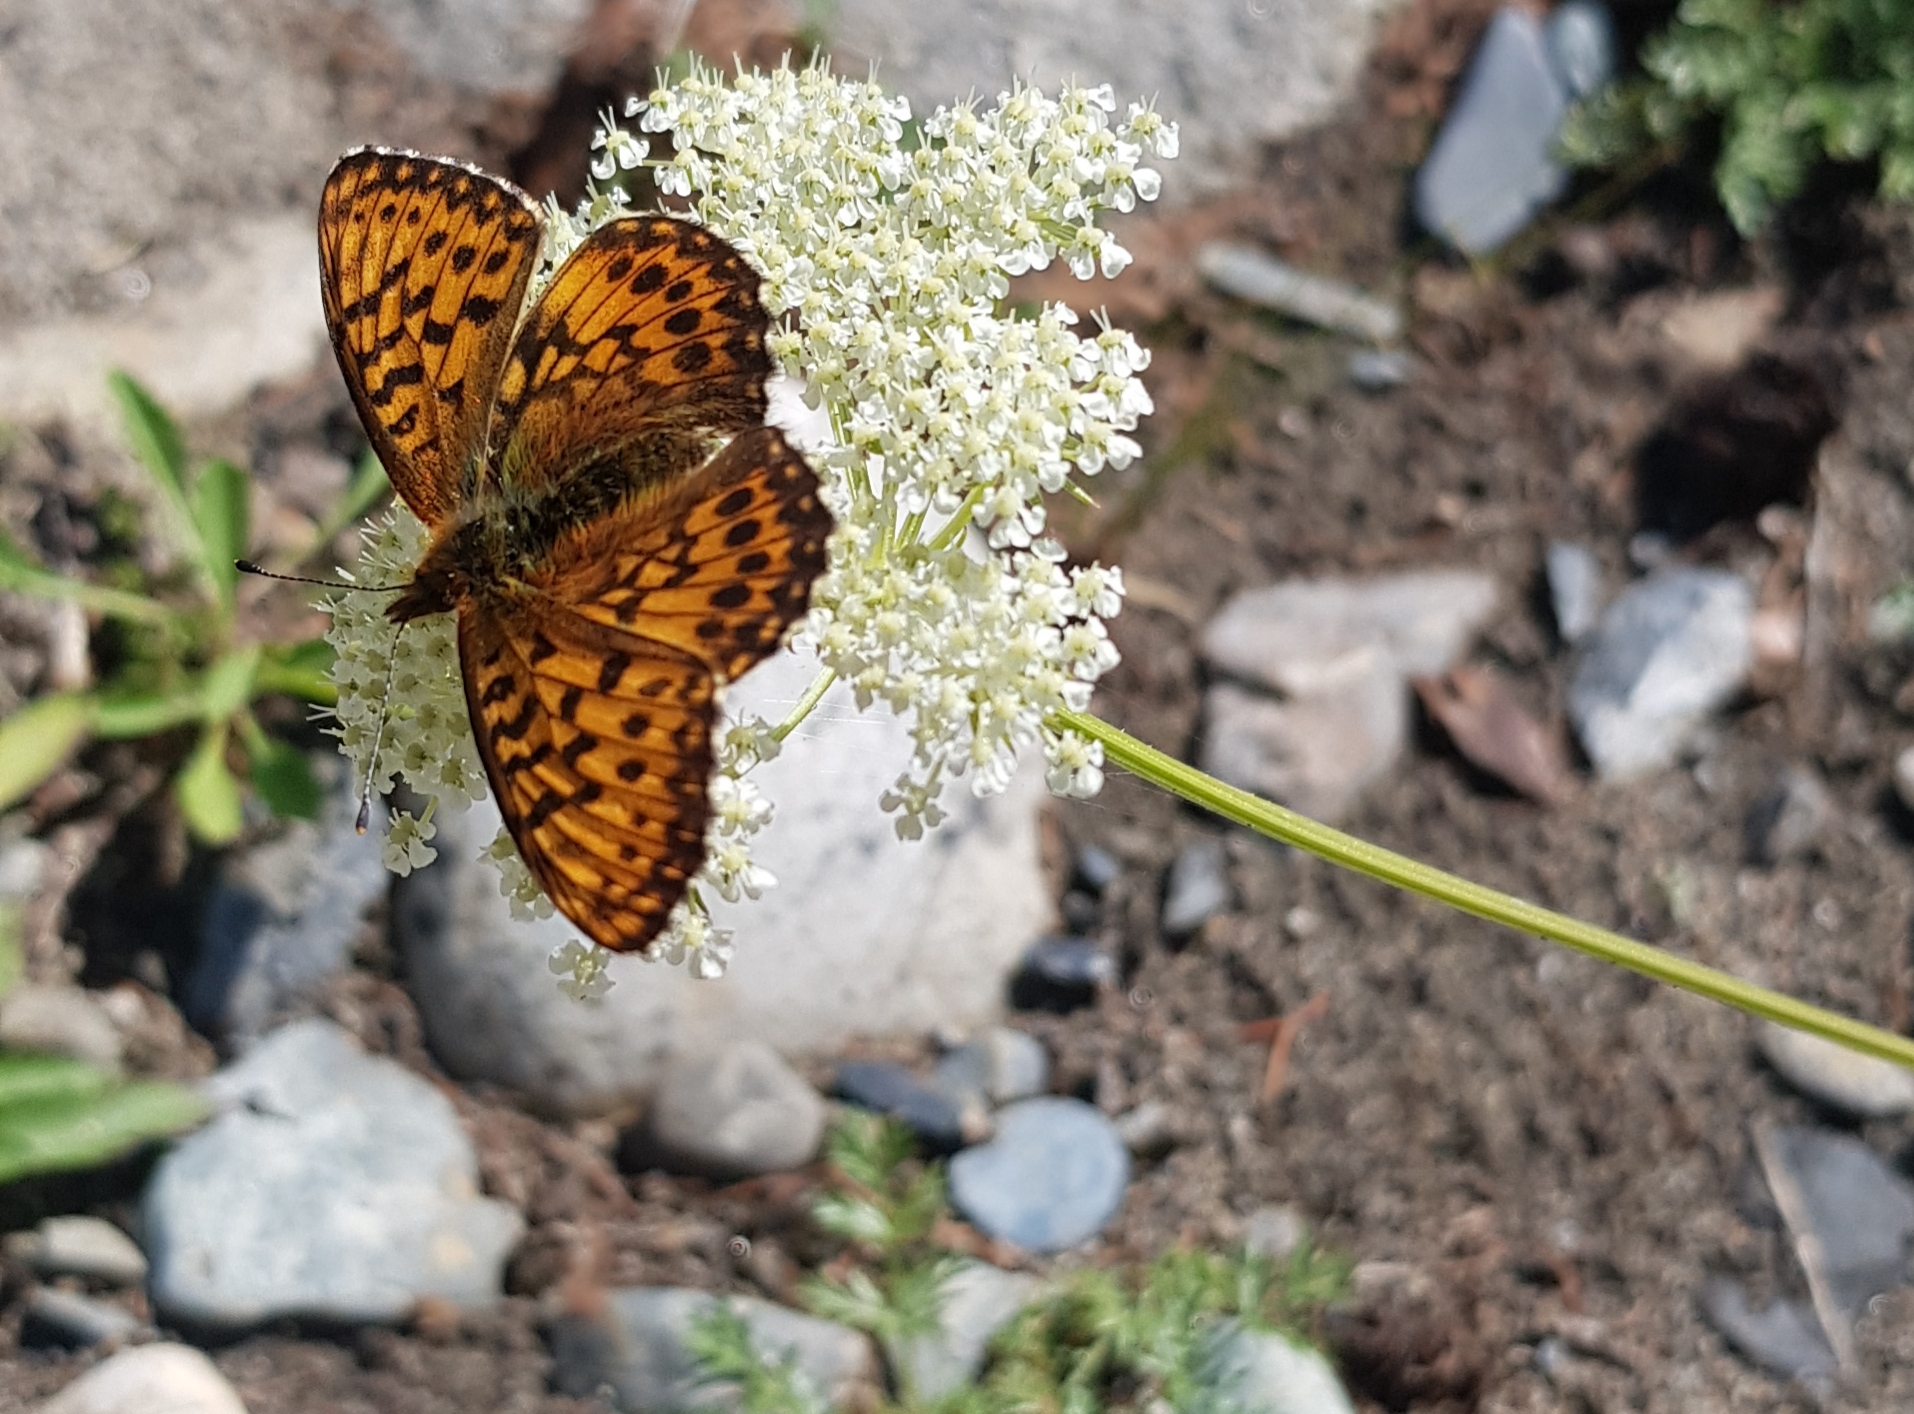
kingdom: Plantae
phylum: Tracheophyta
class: Magnoliopsida
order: Apiales
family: Apiaceae
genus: Kitagawia
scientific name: Kitagawia baicalensis
